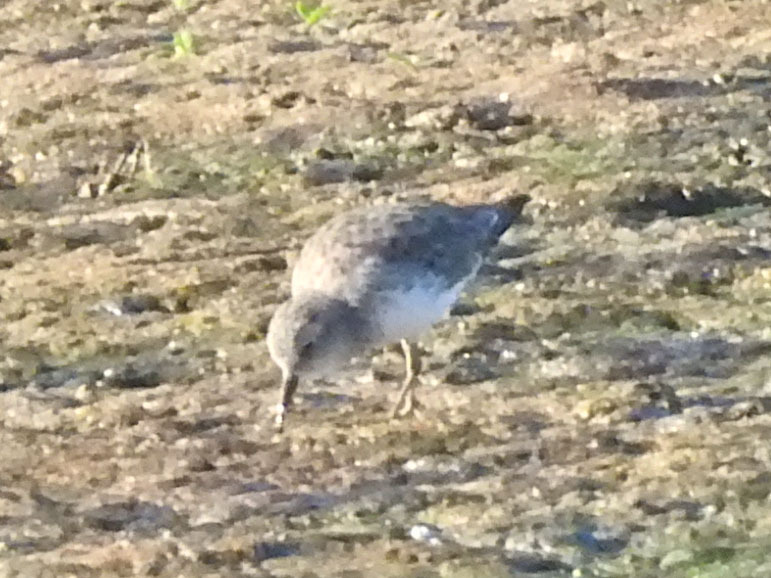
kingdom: Animalia
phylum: Chordata
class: Aves
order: Charadriiformes
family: Scolopacidae
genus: Calidris
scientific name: Calidris minutilla
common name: Least sandpiper
